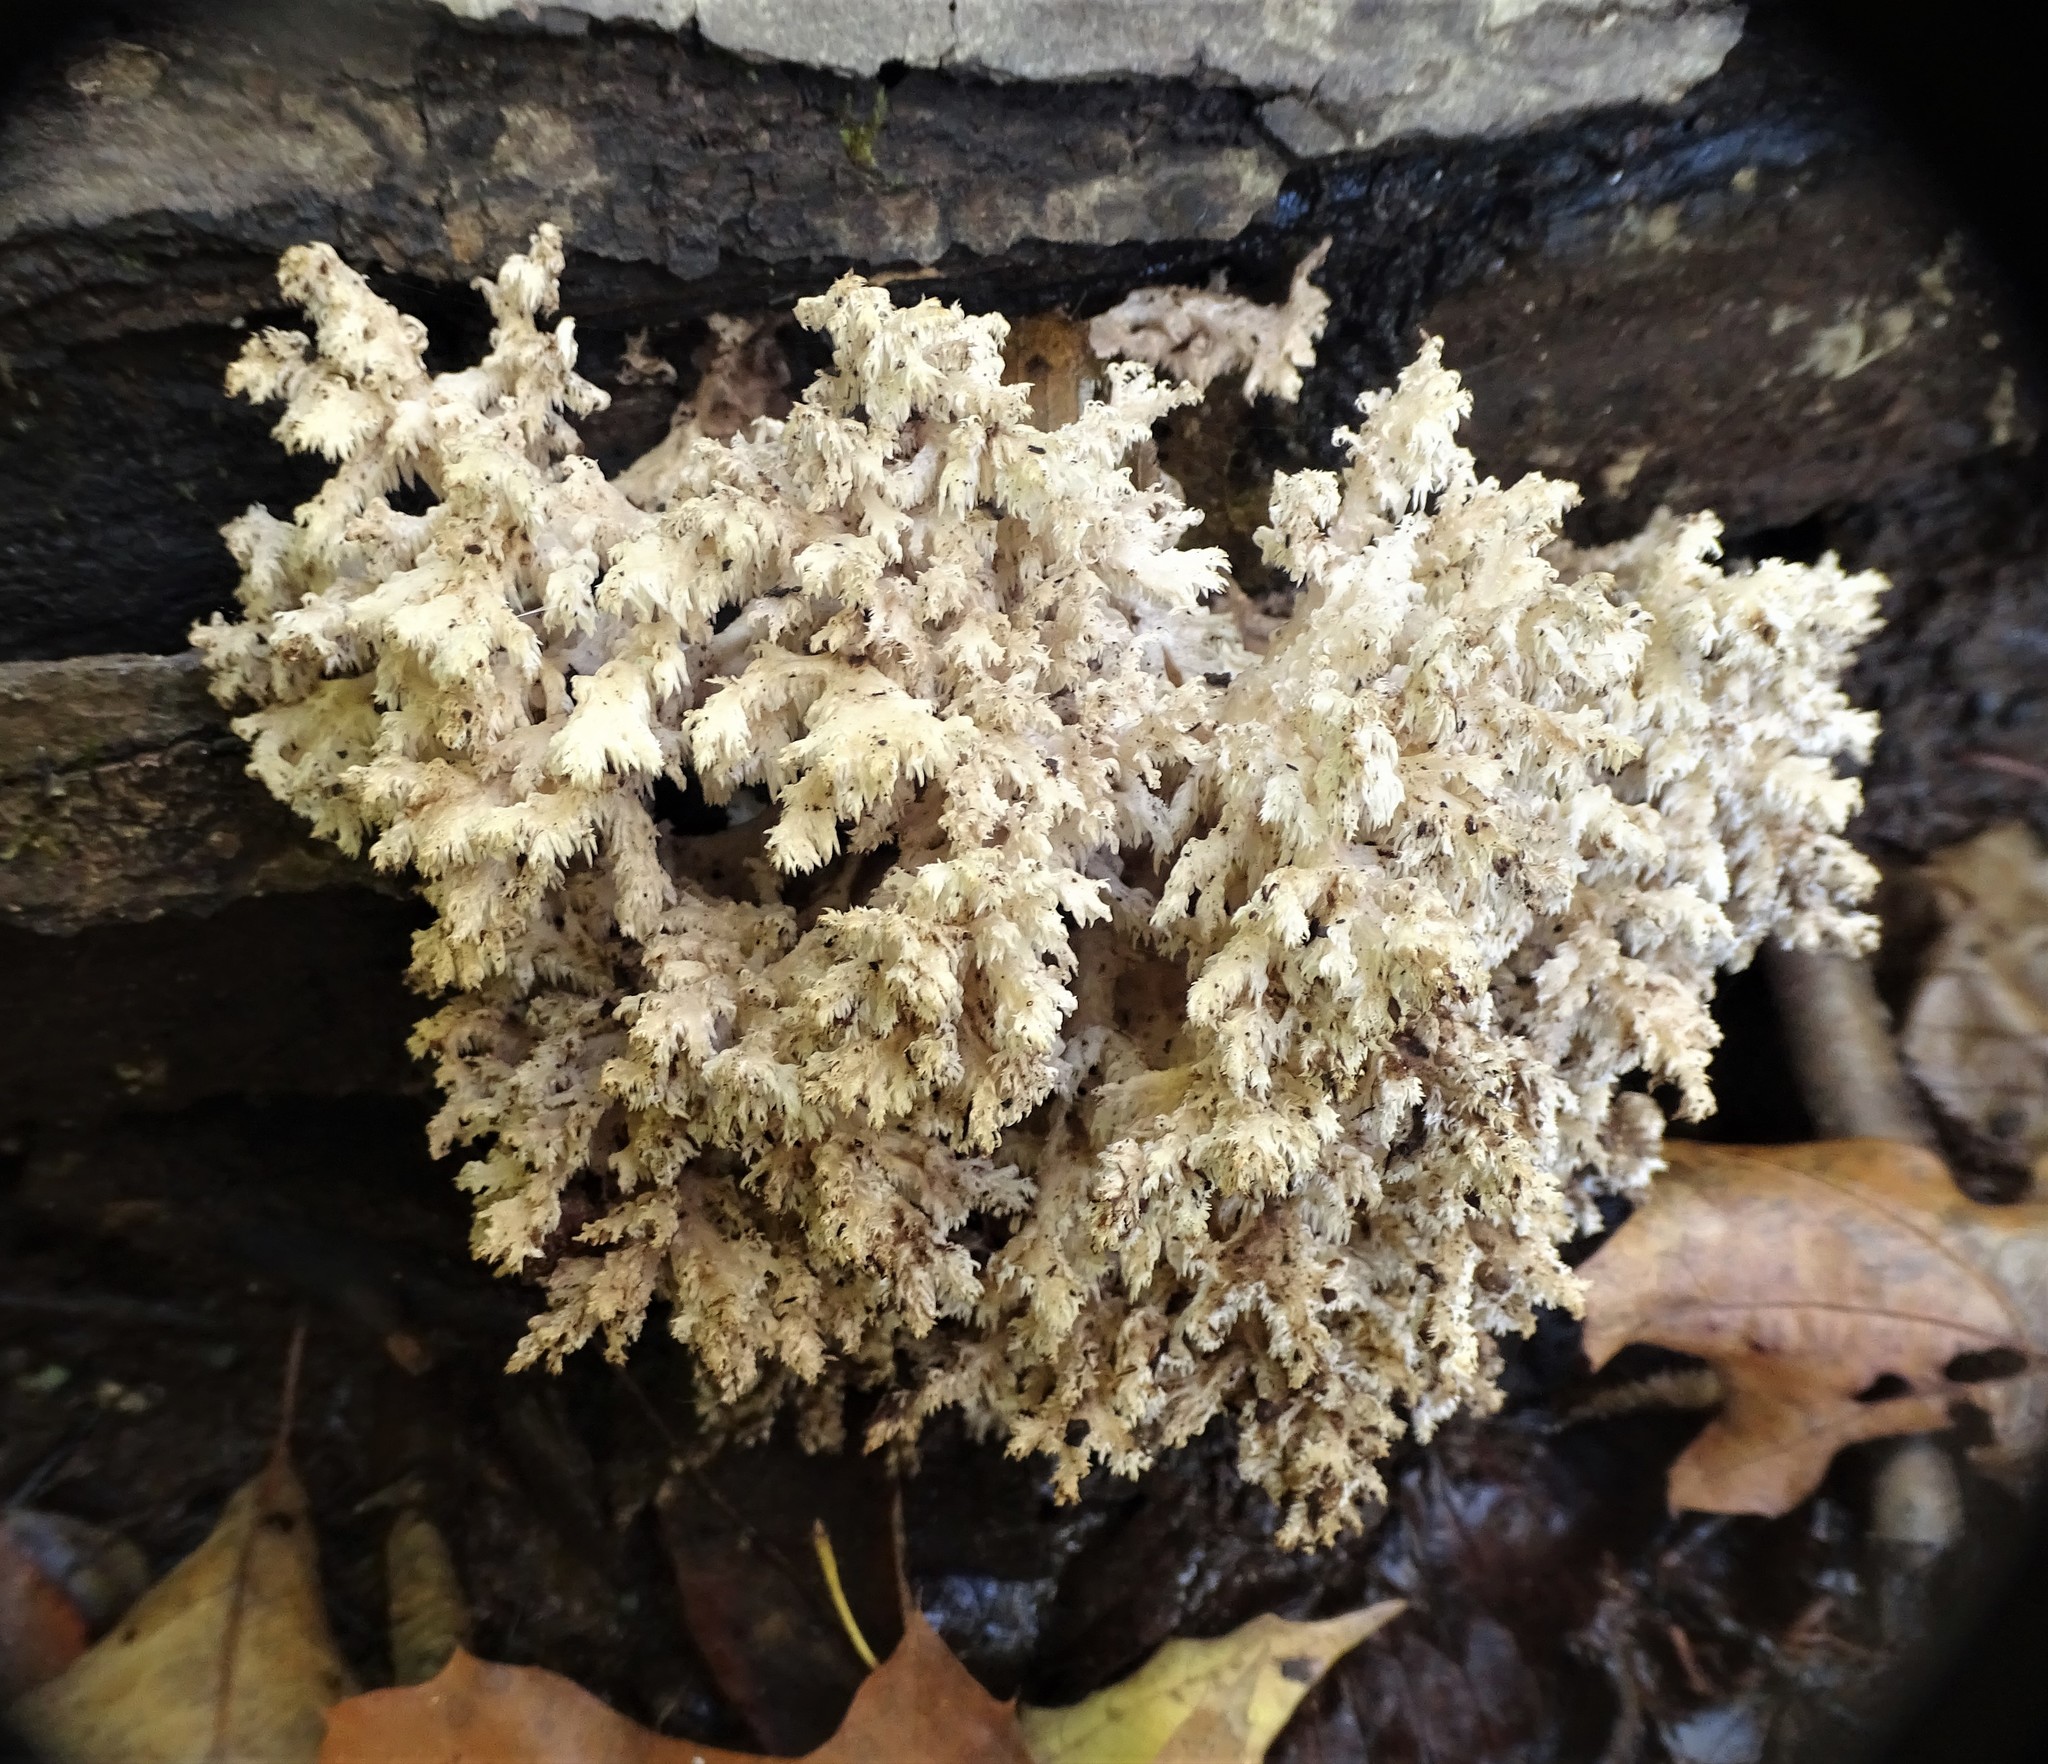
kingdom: Fungi
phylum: Basidiomycota
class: Agaricomycetes
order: Russulales
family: Hericiaceae
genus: Hericium
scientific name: Hericium coralloides
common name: Coral tooth
